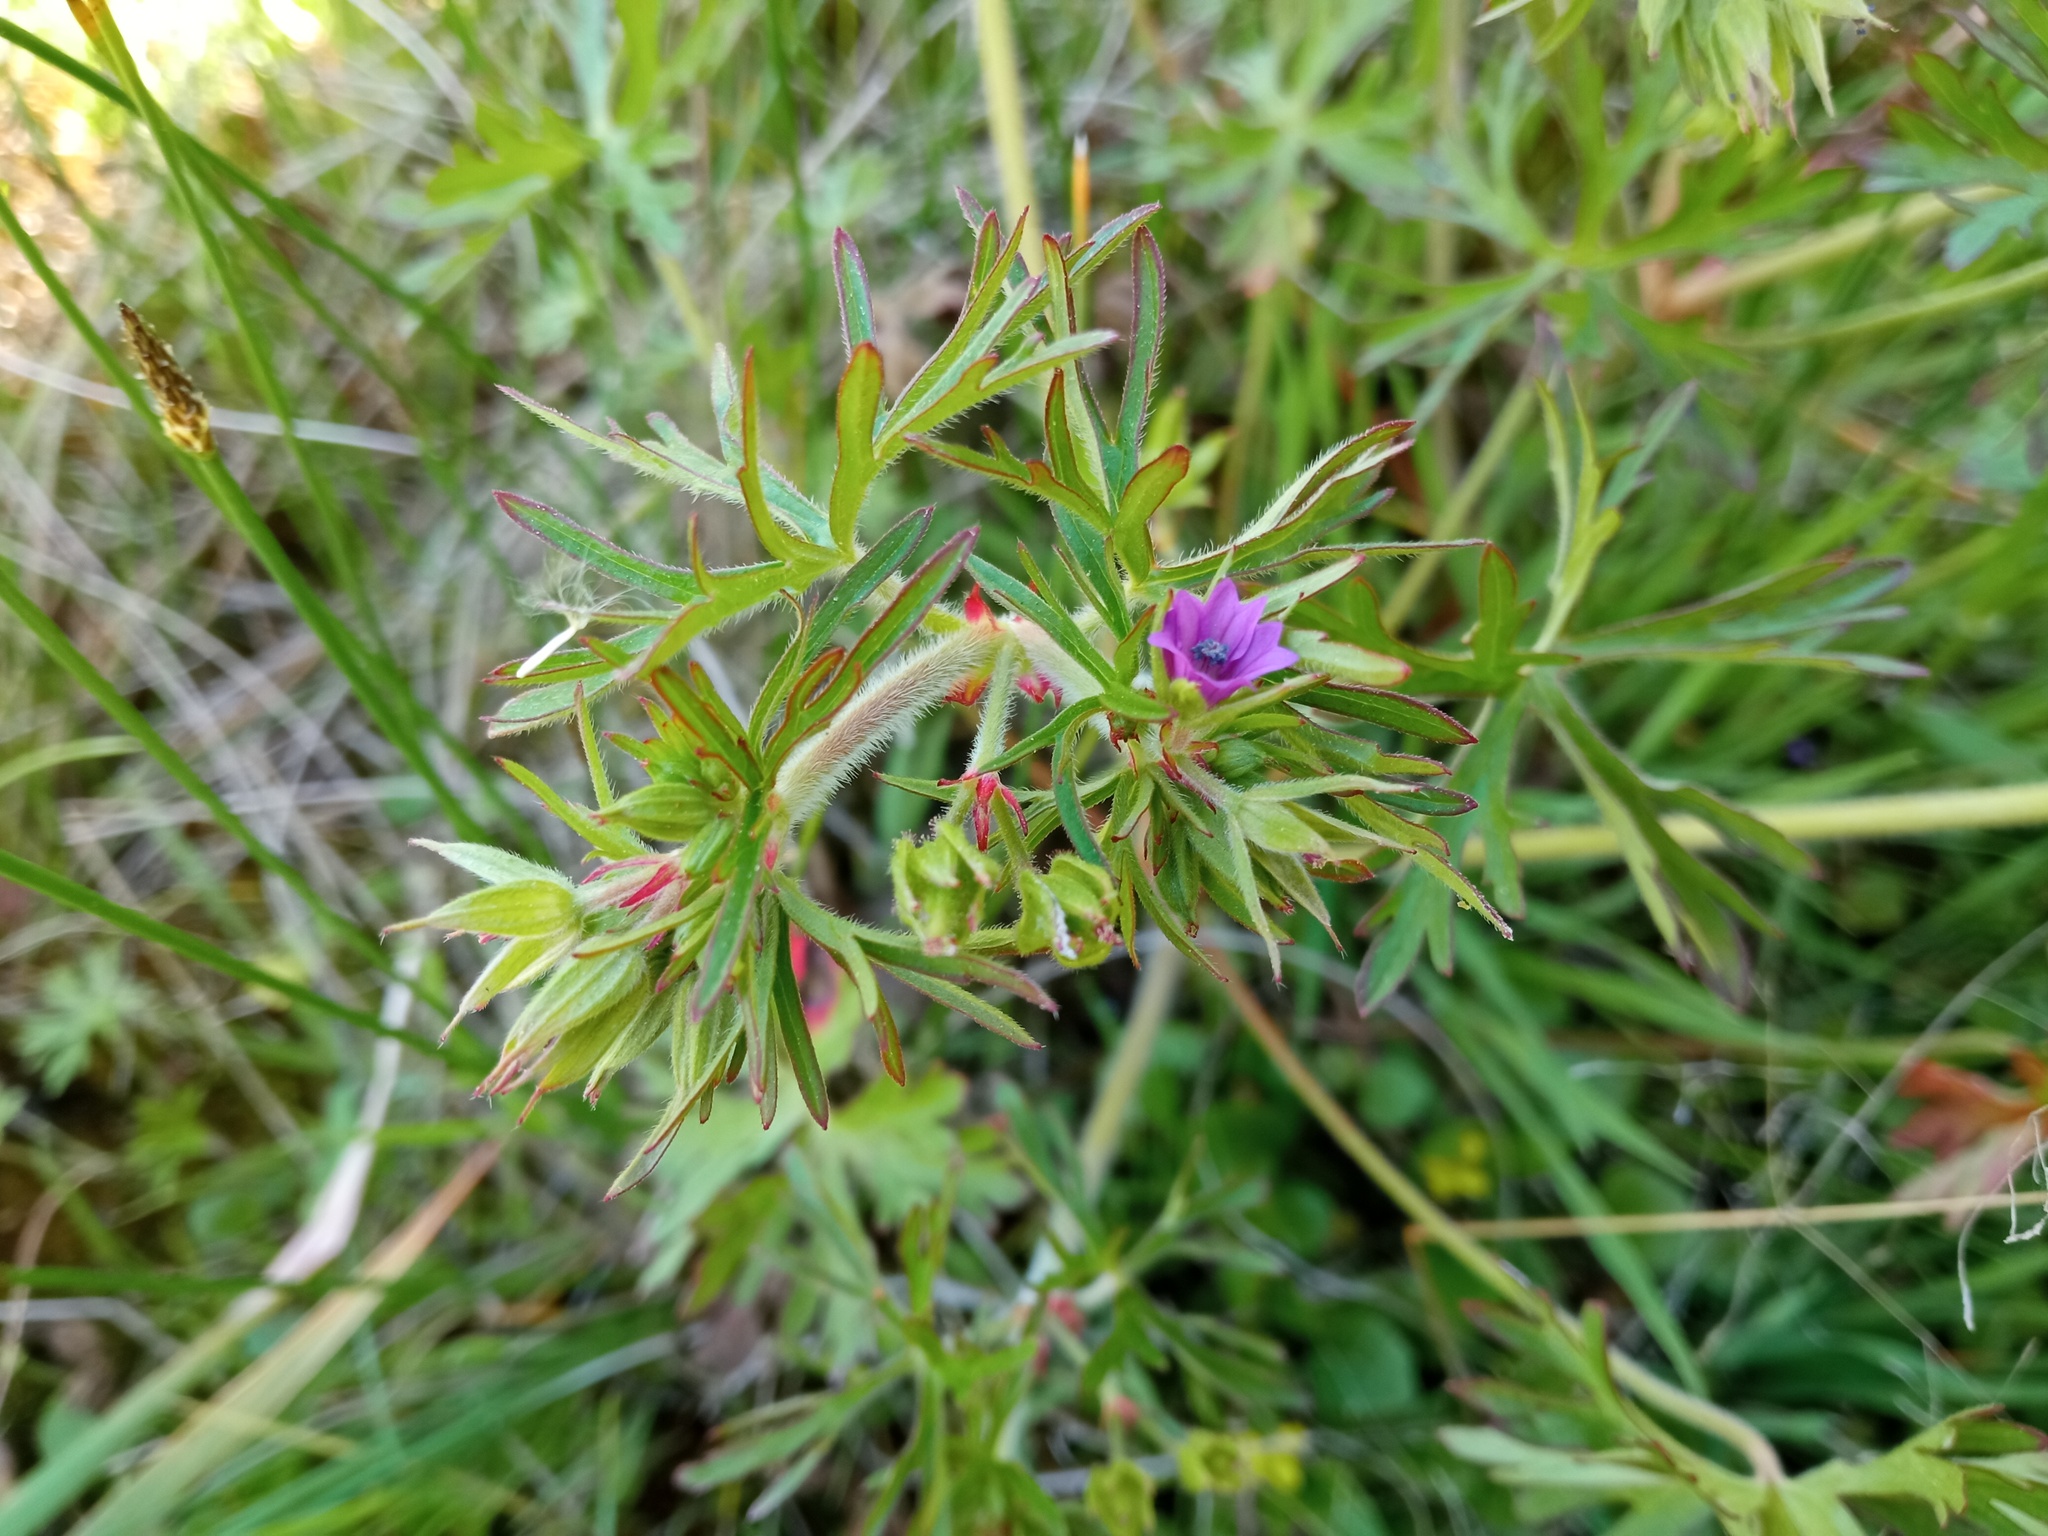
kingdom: Plantae
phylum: Tracheophyta
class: Magnoliopsida
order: Geraniales
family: Geraniaceae
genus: Geranium
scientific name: Geranium dissectum
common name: Cut-leaved crane's-bill
